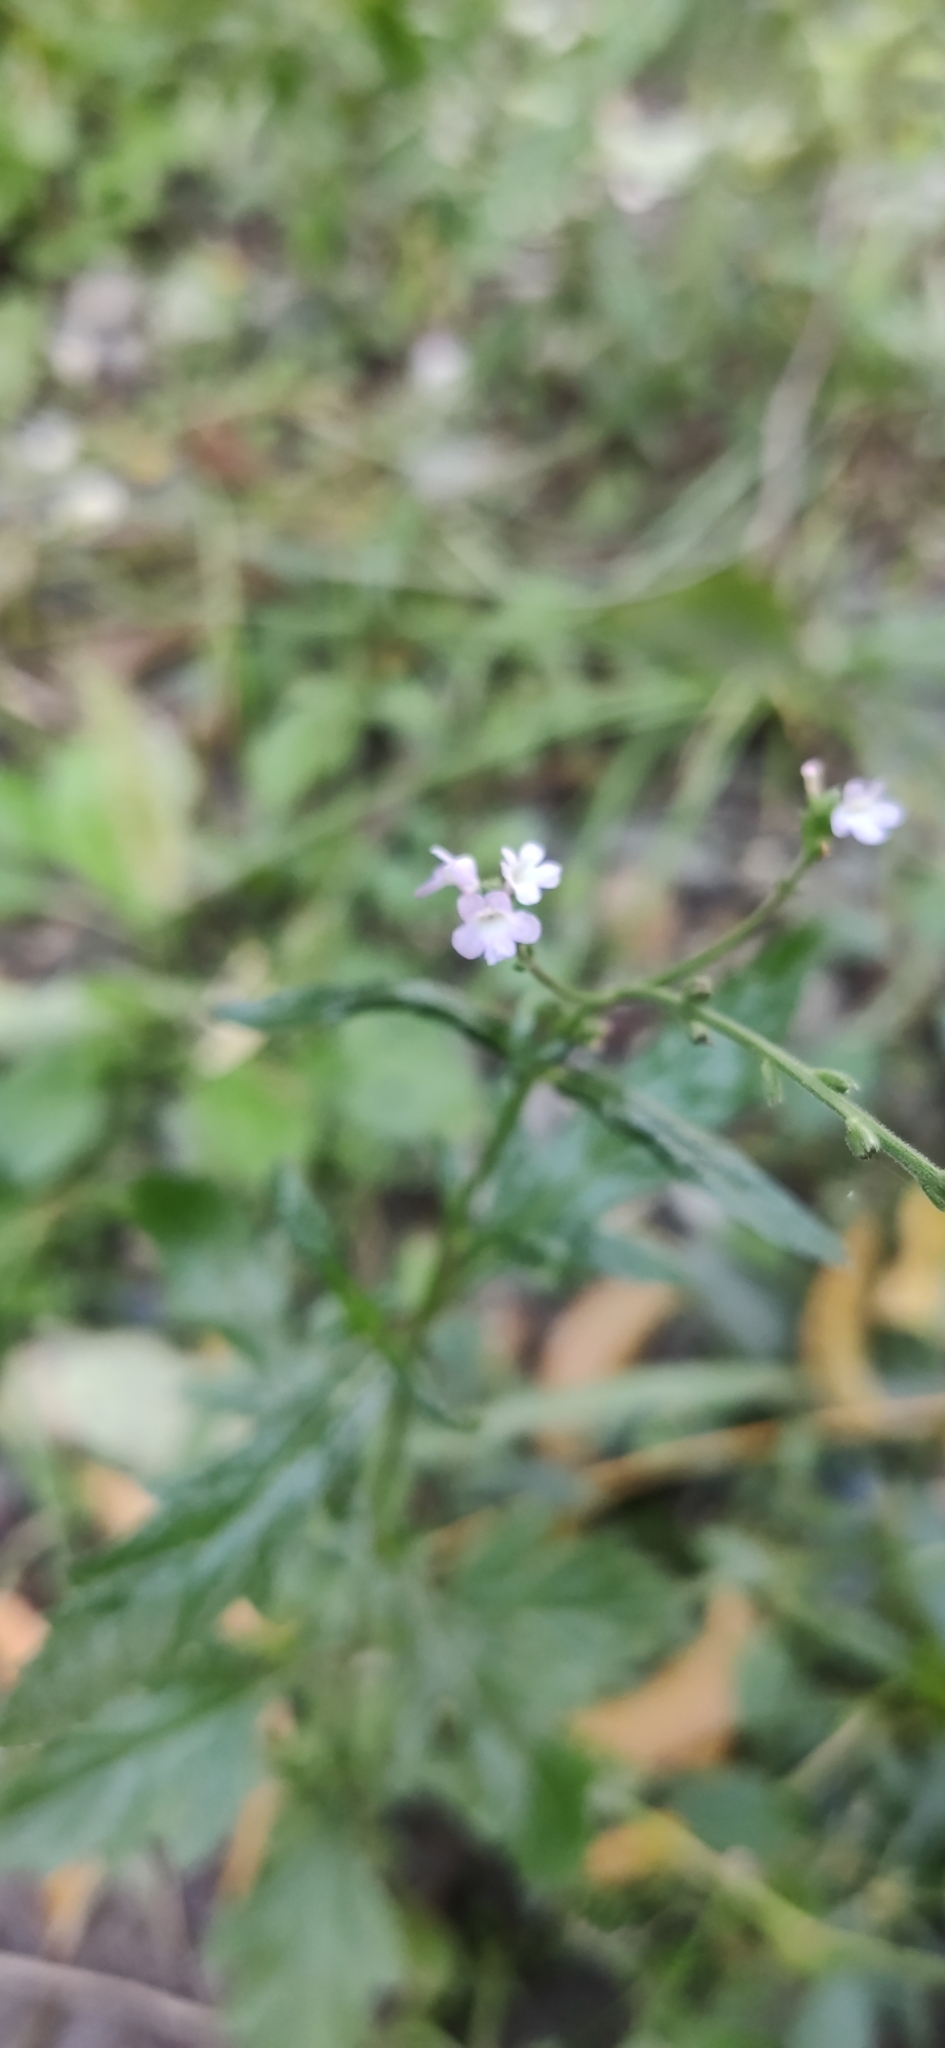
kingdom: Plantae
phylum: Tracheophyta
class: Magnoliopsida
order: Lamiales
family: Verbenaceae
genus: Verbena
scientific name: Verbena officinalis
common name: Vervain
